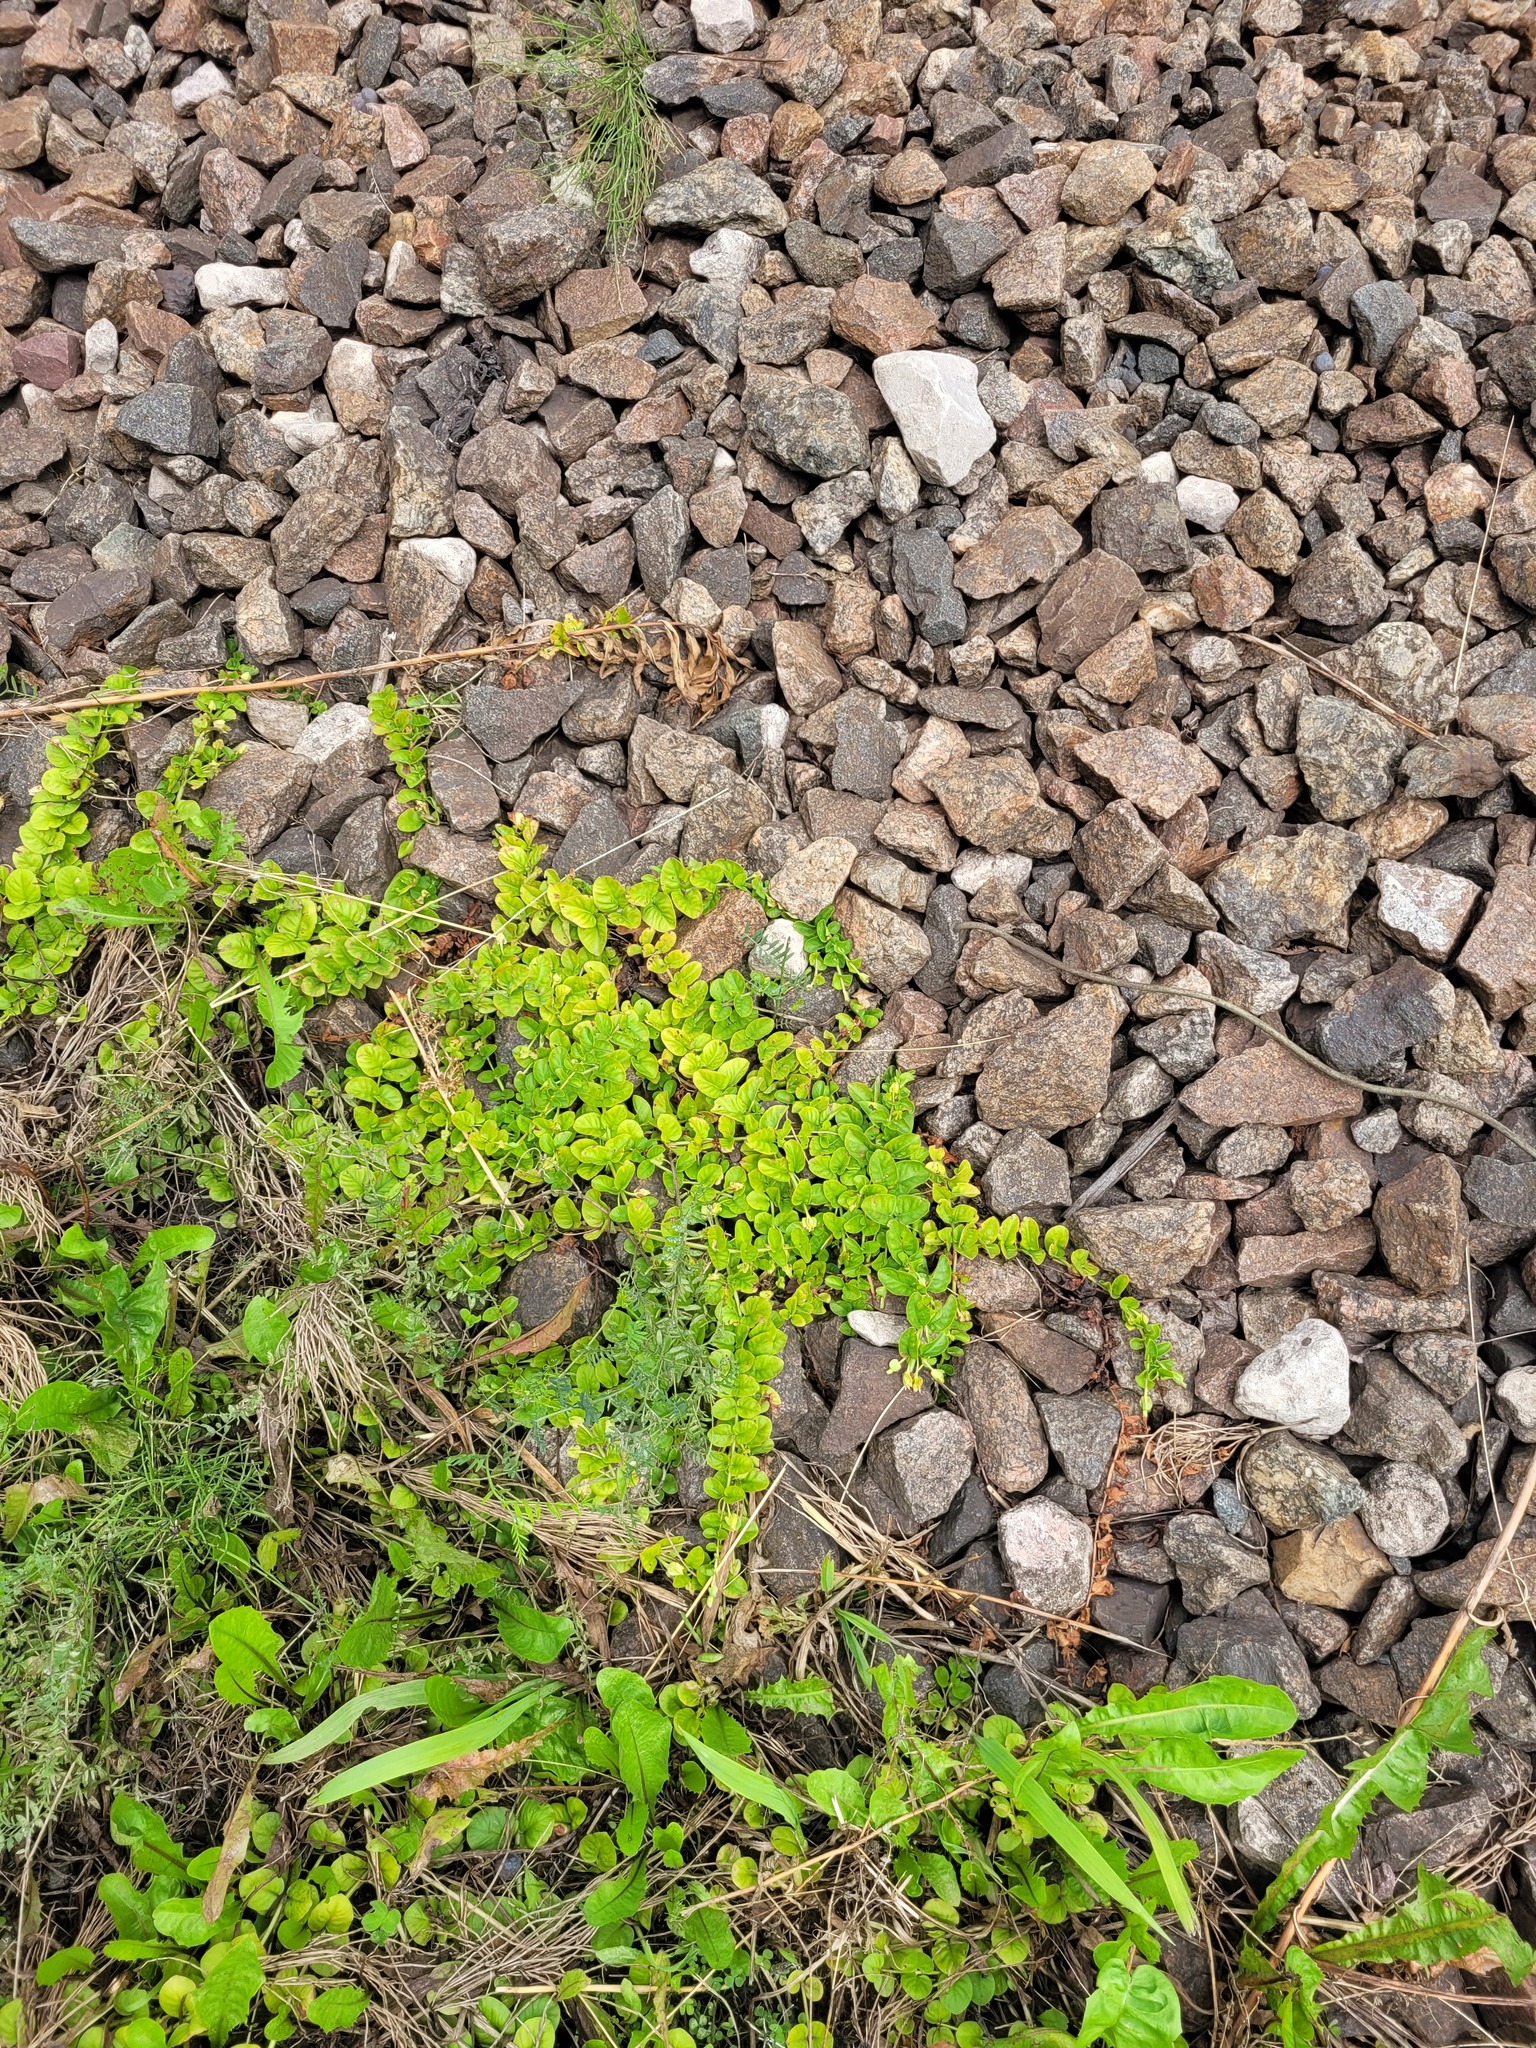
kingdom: Plantae
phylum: Tracheophyta
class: Magnoliopsida
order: Ericales
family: Primulaceae
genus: Lysimachia
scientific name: Lysimachia nummularia
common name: Moneywort
